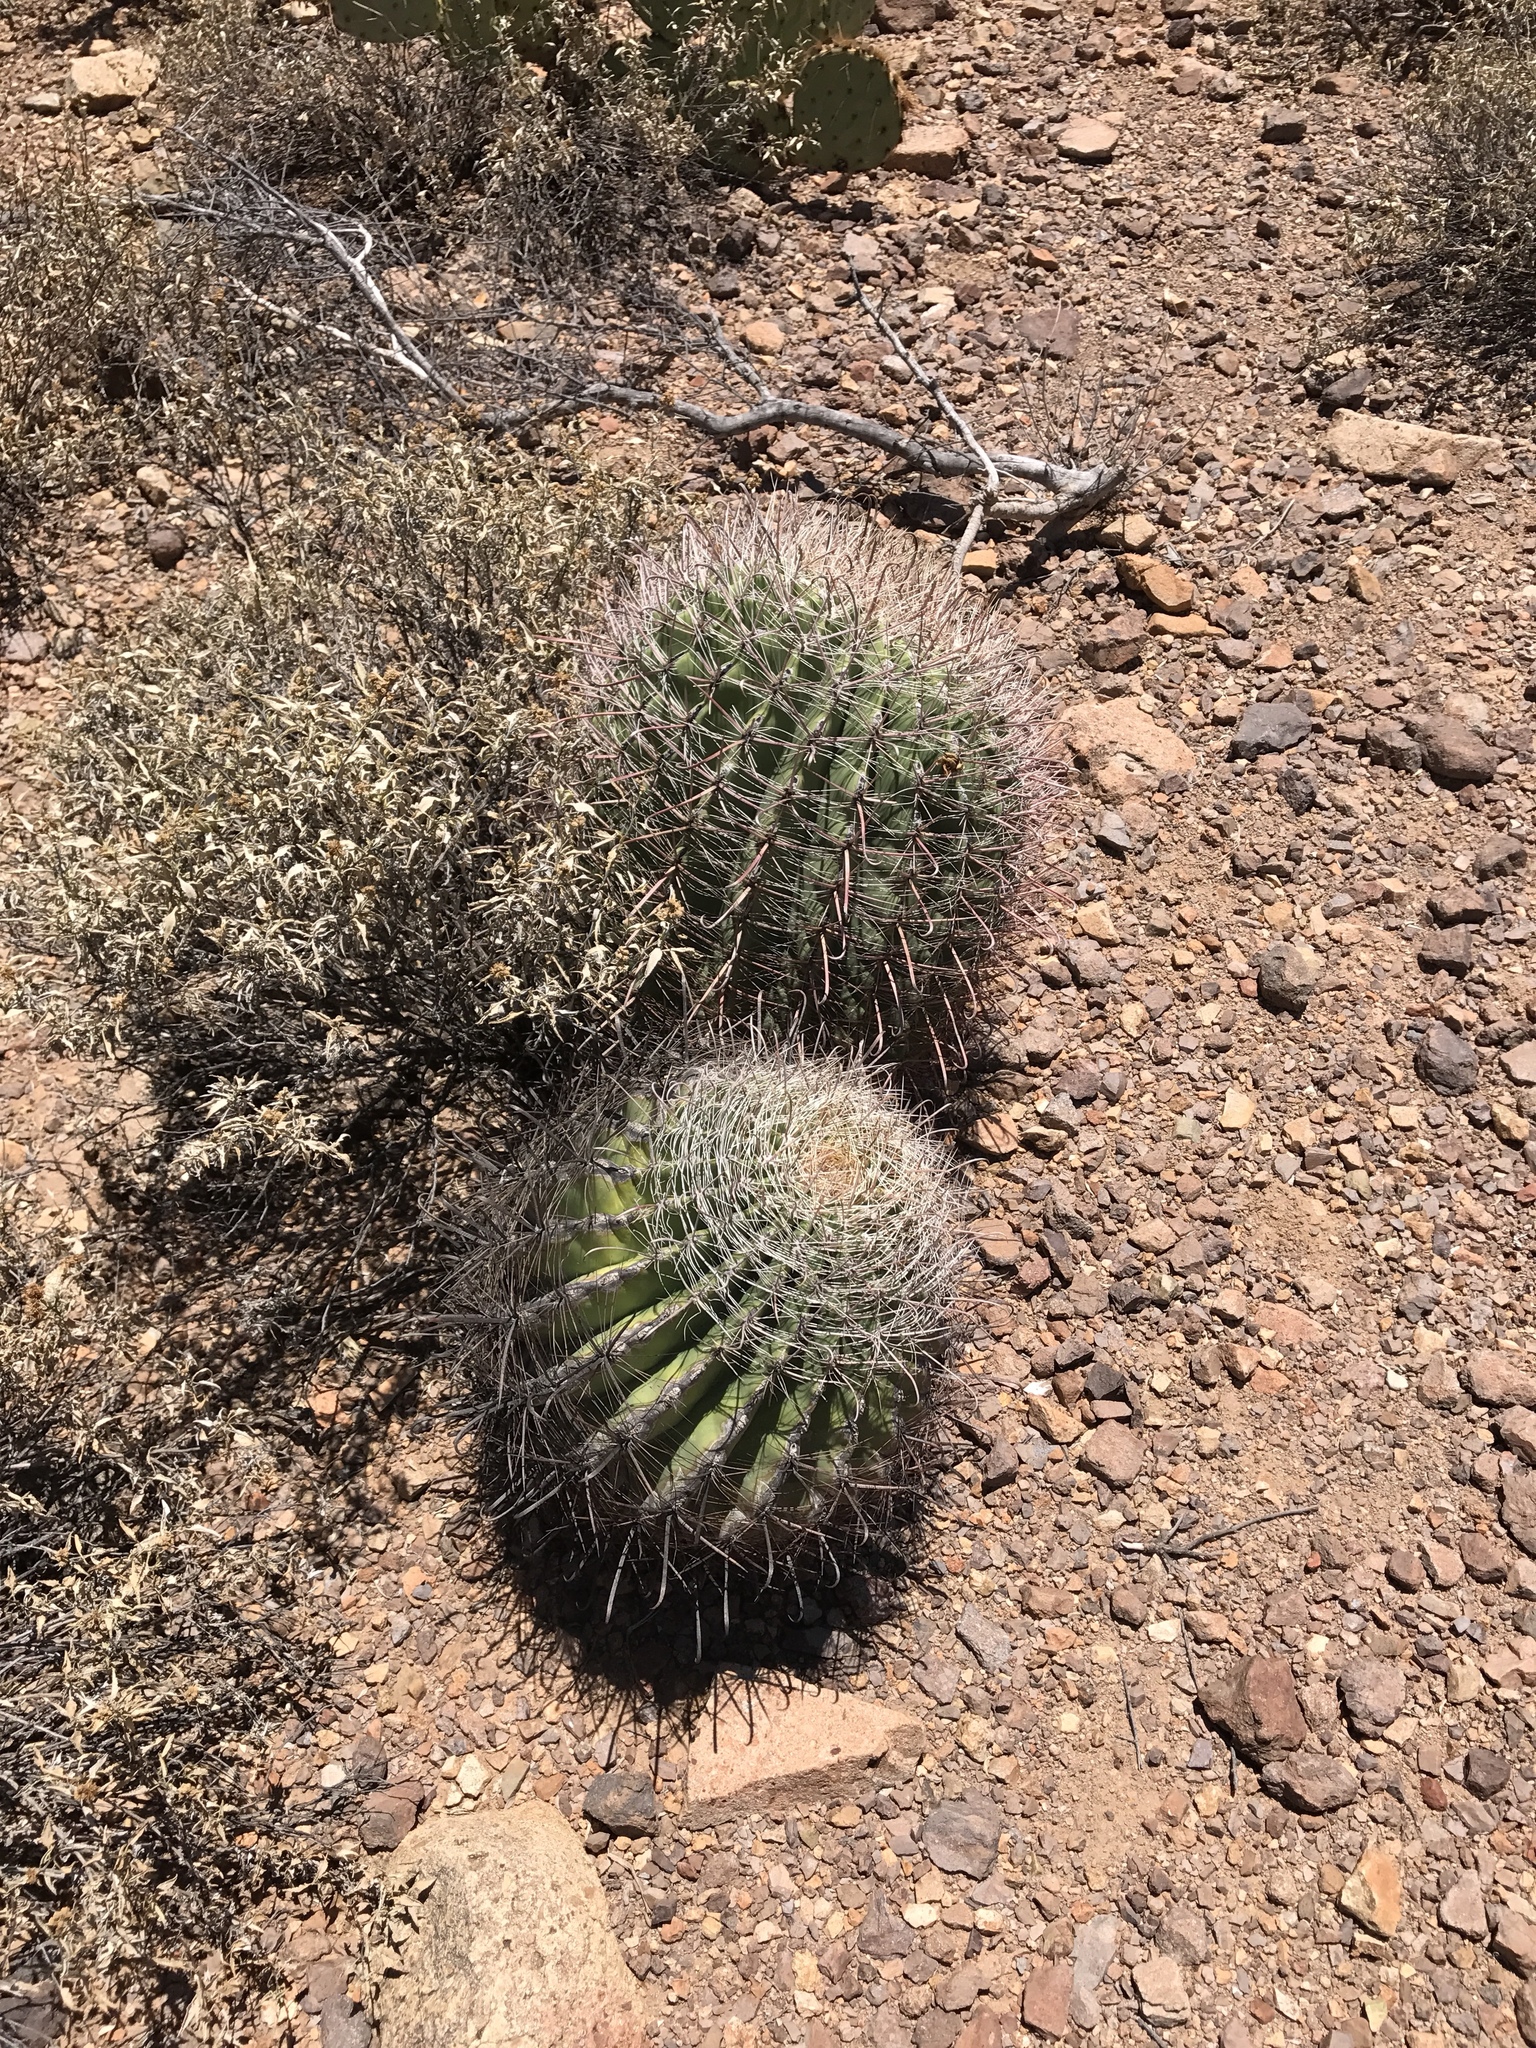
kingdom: Plantae
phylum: Tracheophyta
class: Magnoliopsida
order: Caryophyllales
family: Cactaceae
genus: Ferocactus
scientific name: Ferocactus wislizeni
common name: Candy barrel cactus
